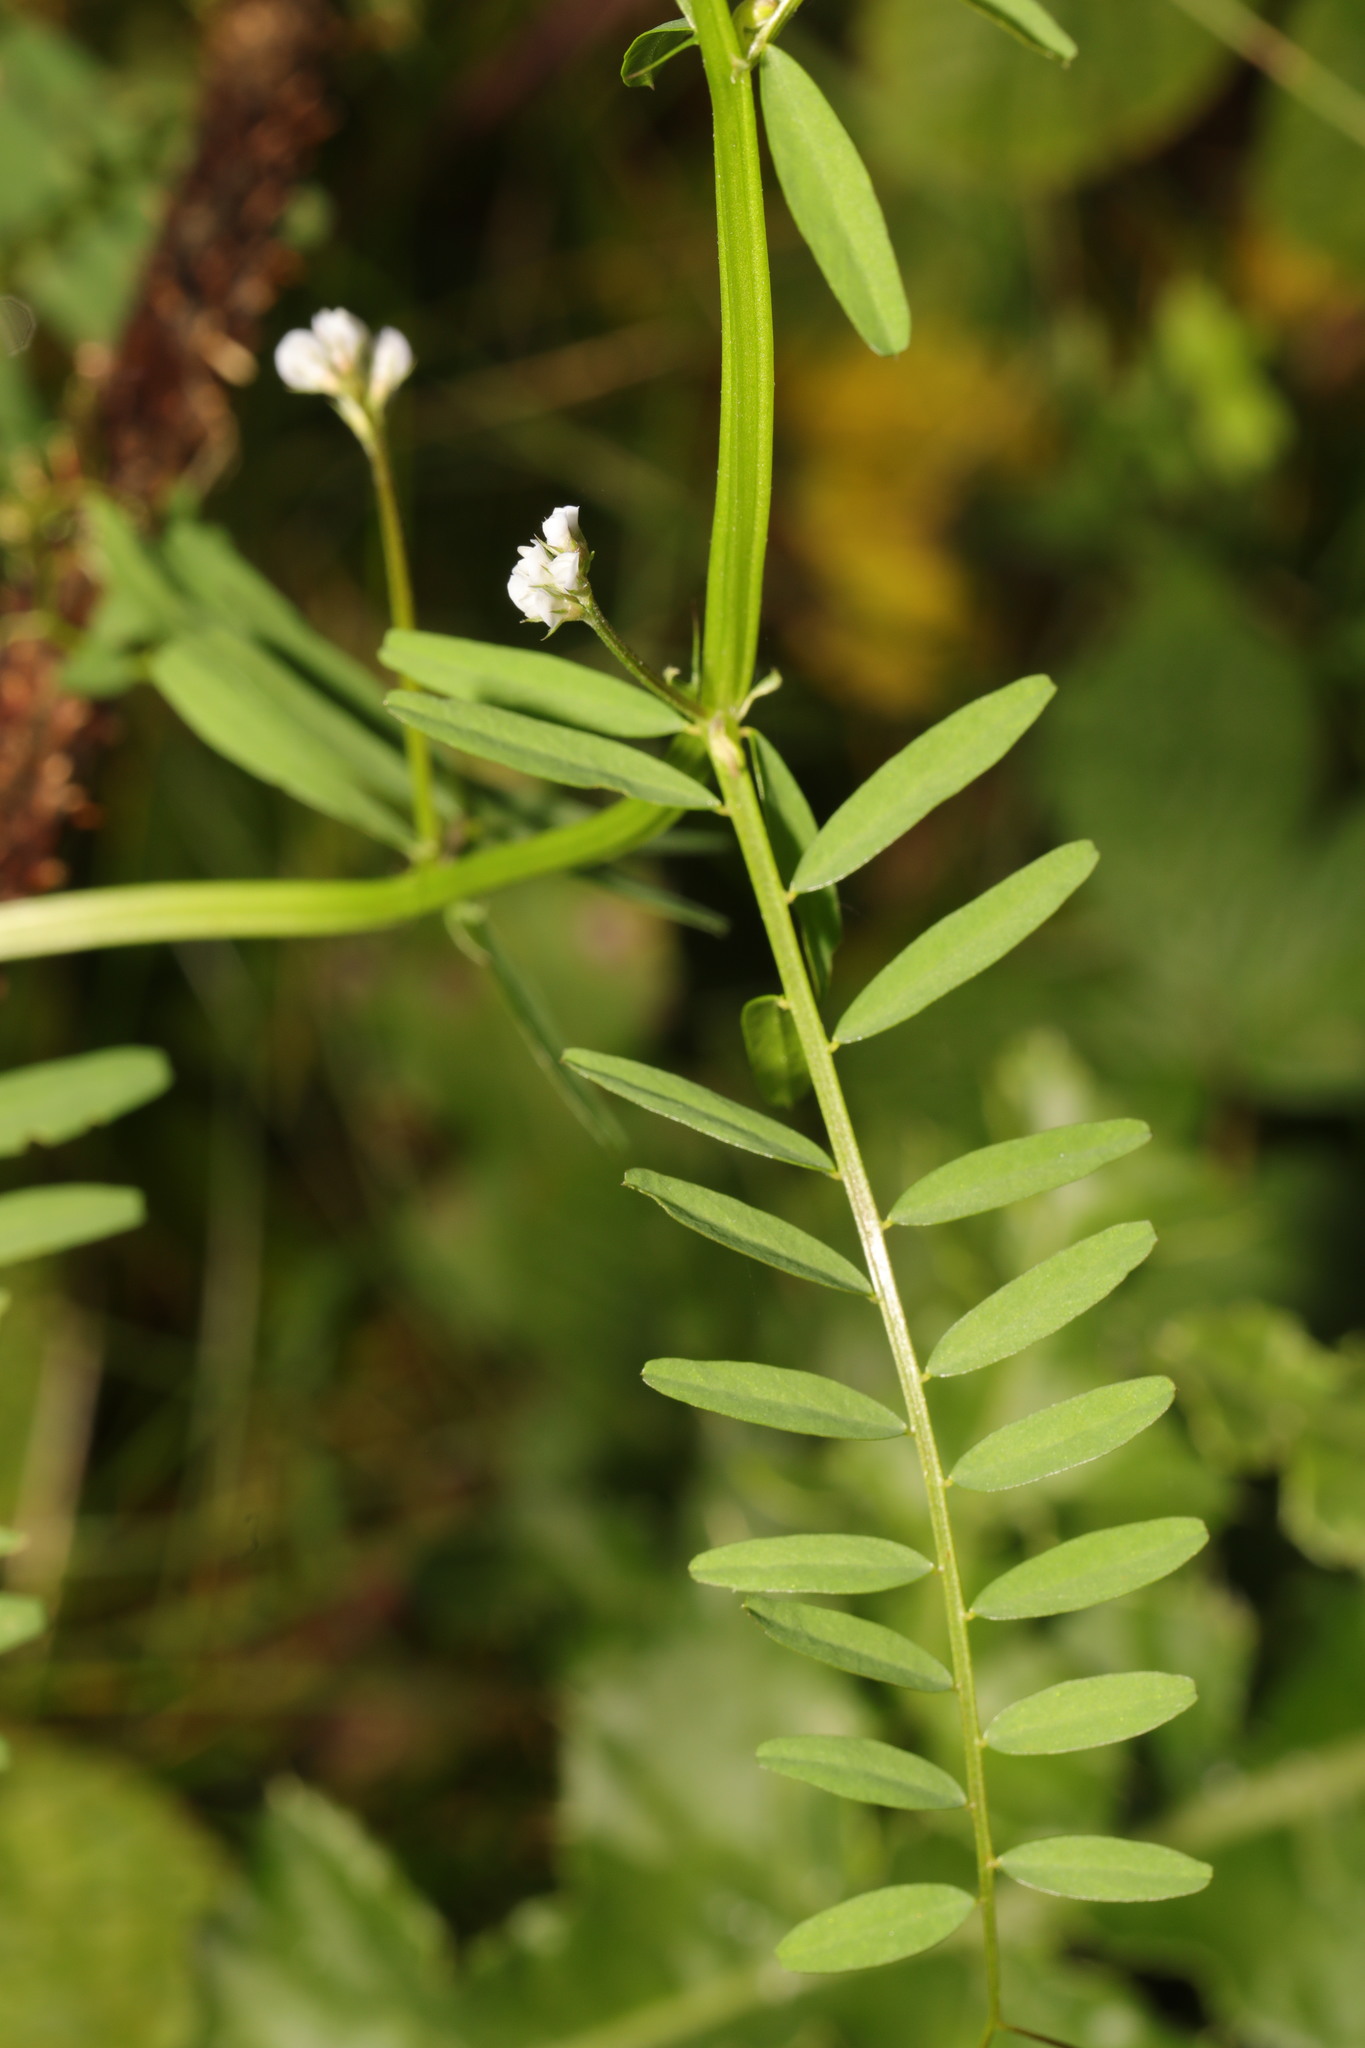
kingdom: Plantae
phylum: Tracheophyta
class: Magnoliopsida
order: Fabales
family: Fabaceae
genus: Vicia
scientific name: Vicia hirsuta
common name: Tiny vetch
